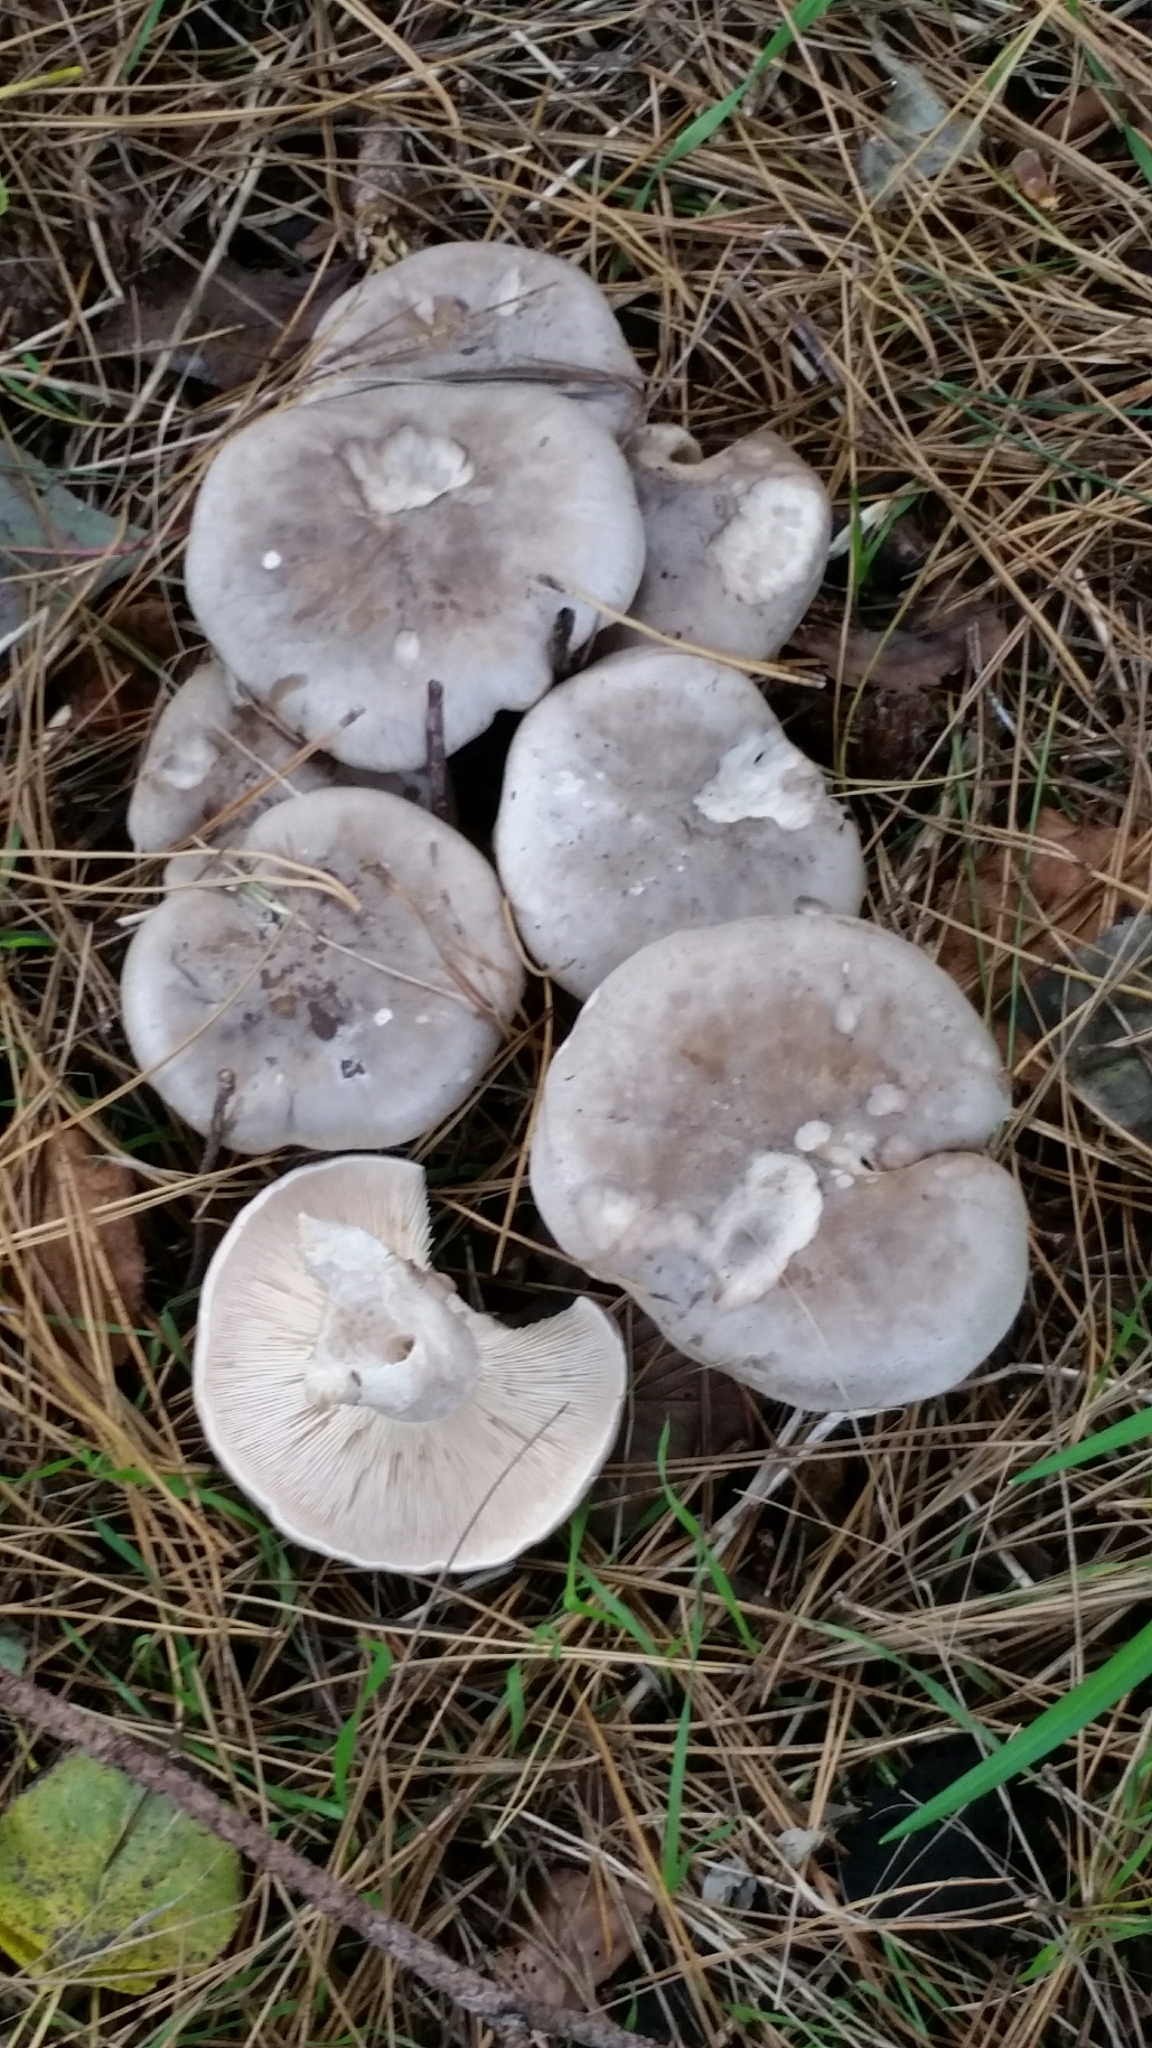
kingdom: Fungi
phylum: Basidiomycota
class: Agaricomycetes
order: Agaricales
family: Tricholomataceae
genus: Clitocybe
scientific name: Clitocybe nebularis
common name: Clouded agaric
